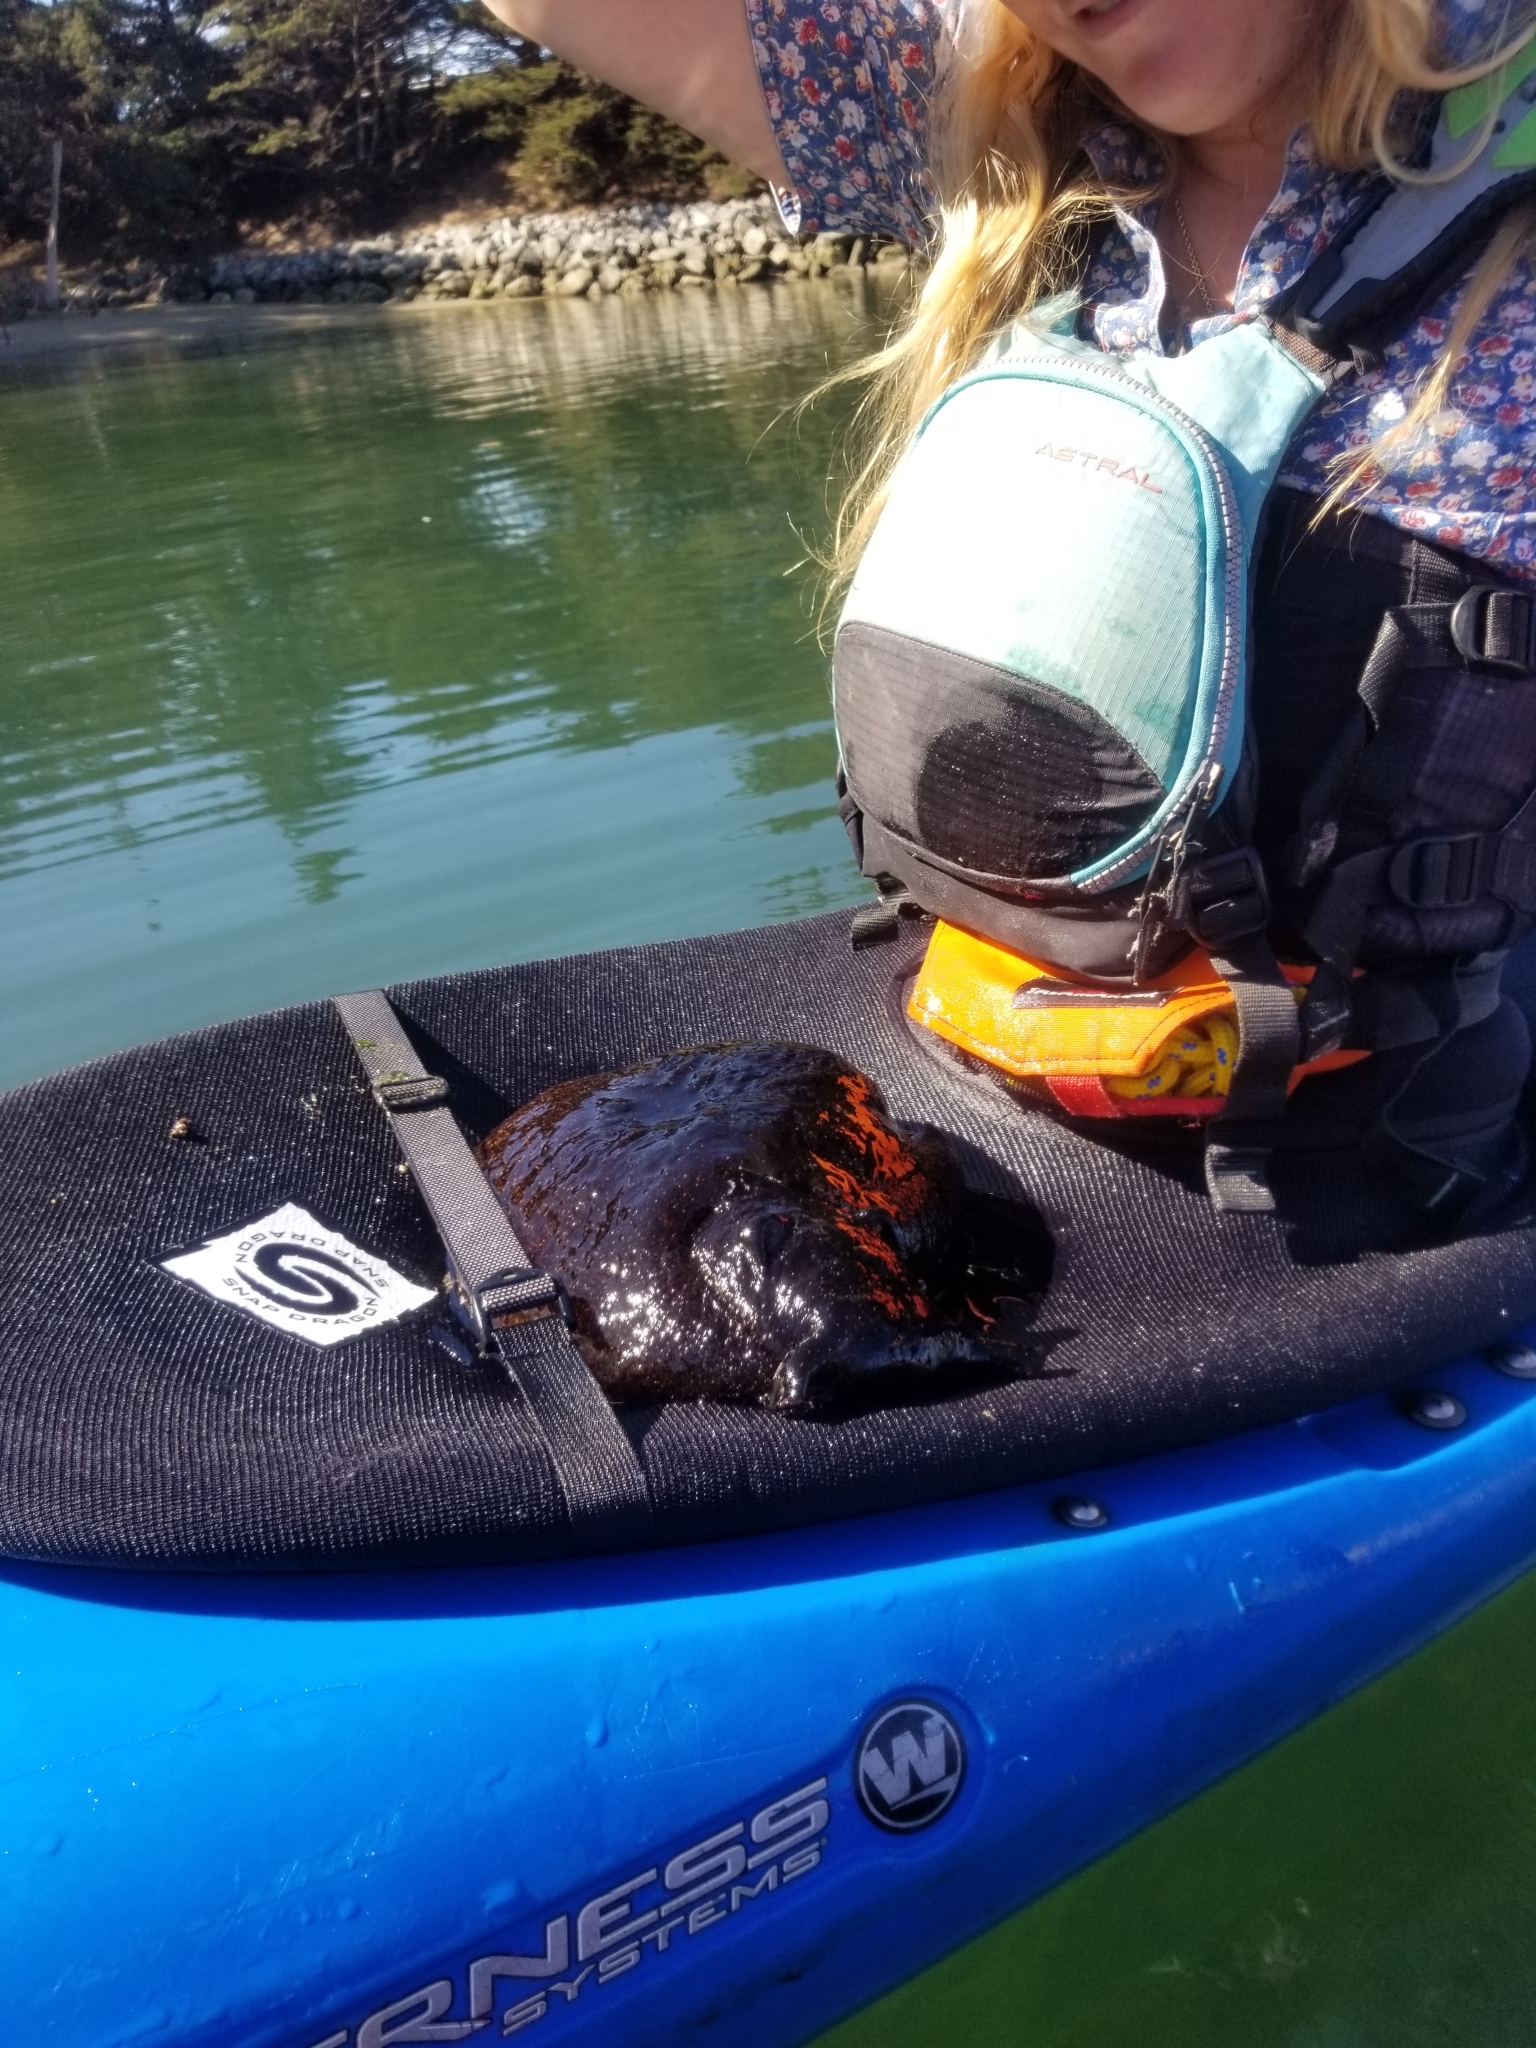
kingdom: Animalia
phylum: Mollusca
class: Gastropoda
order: Aplysiida
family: Aplysiidae
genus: Aplysia
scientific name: Aplysia vaccaria
